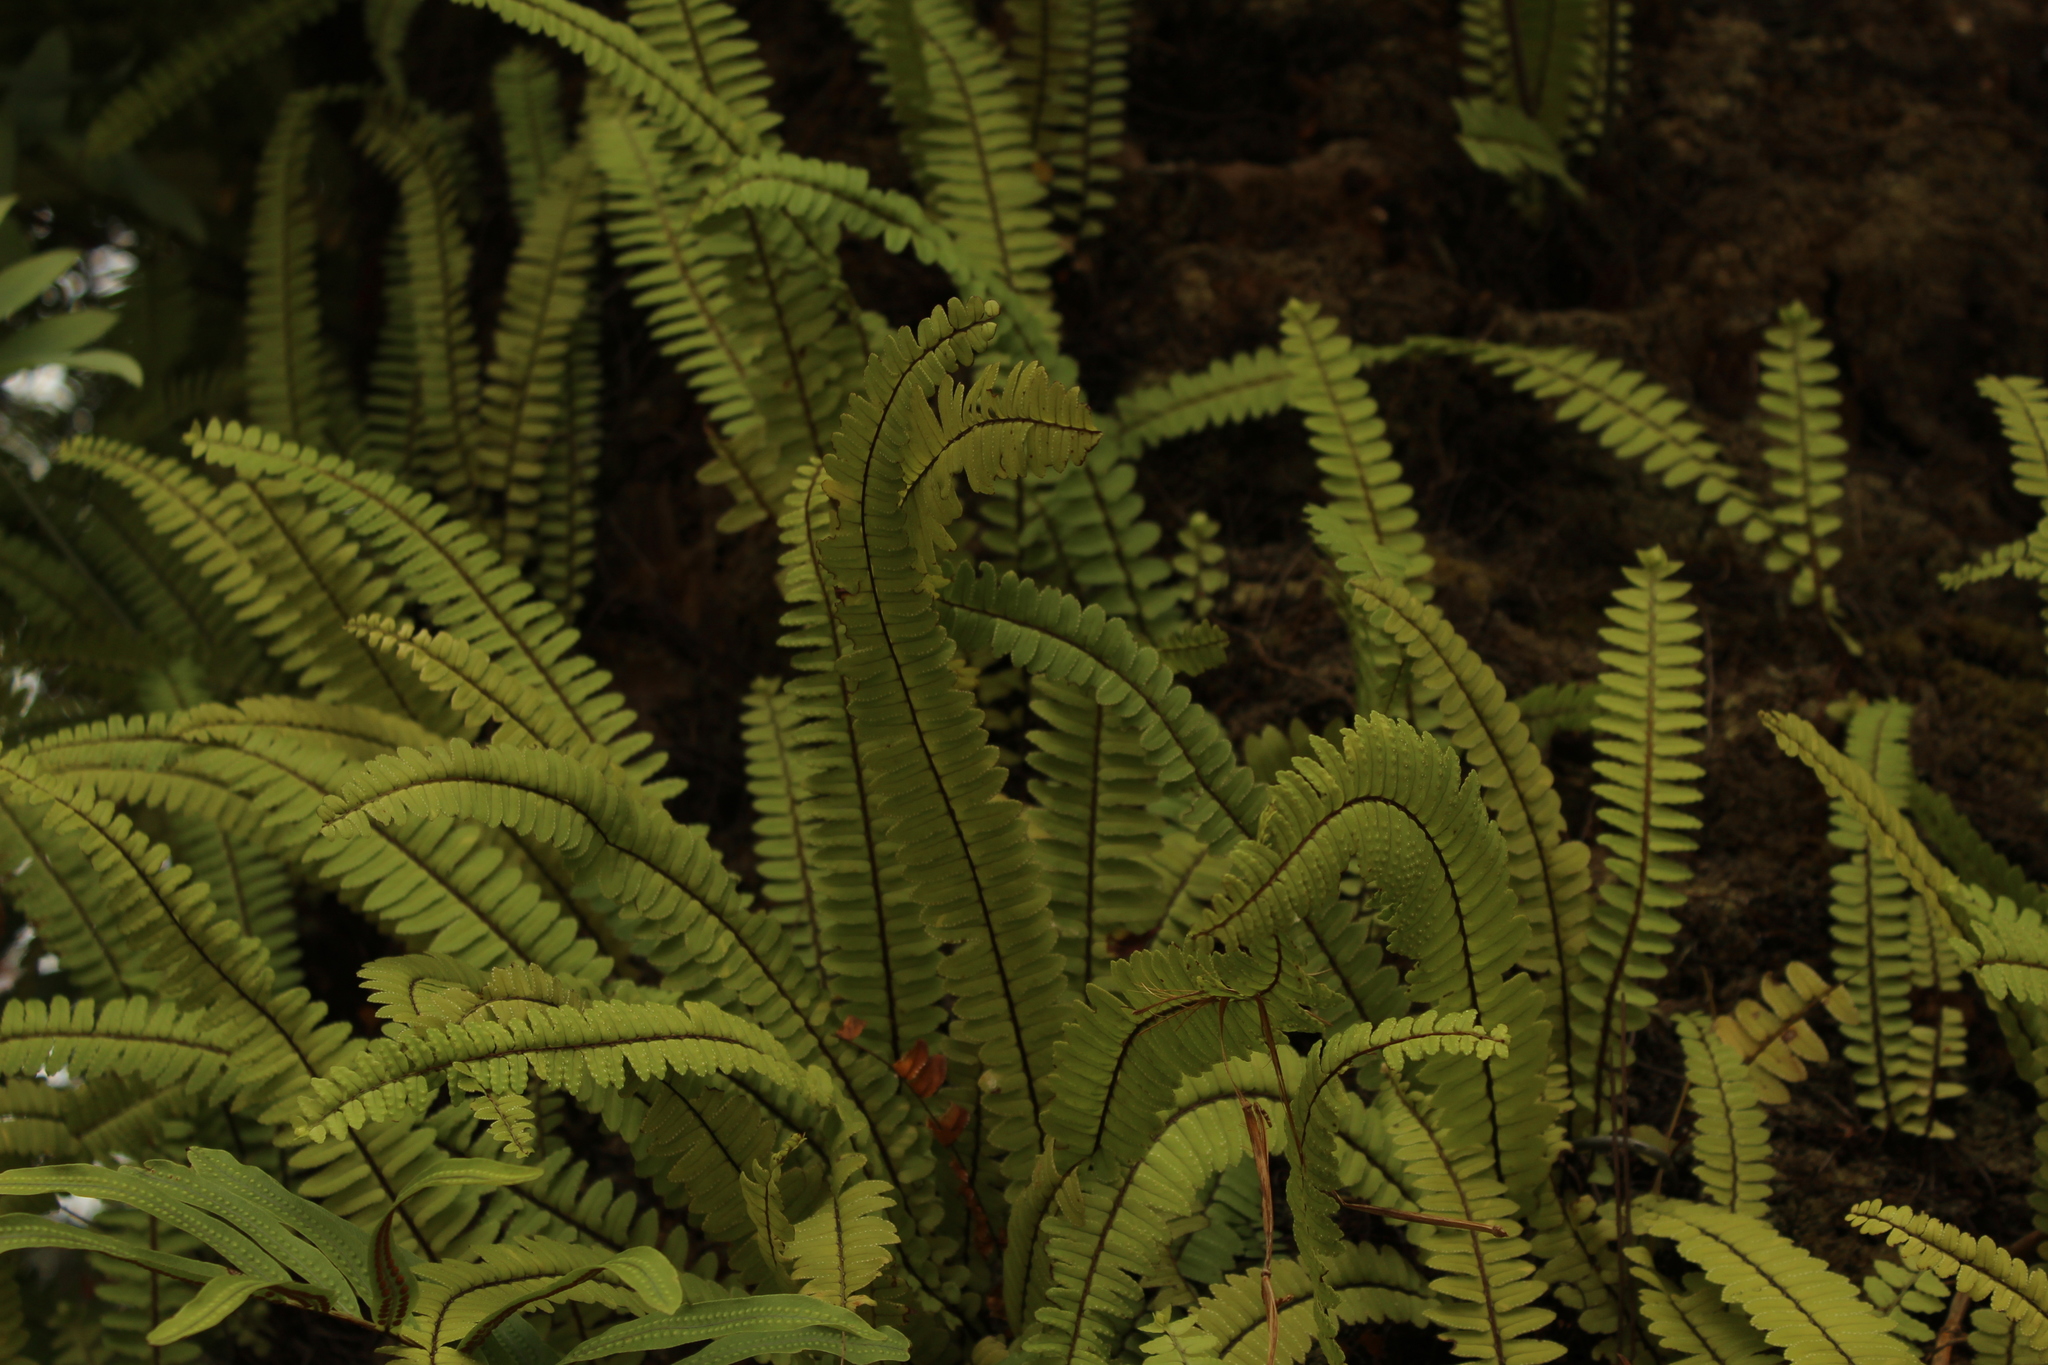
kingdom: Plantae
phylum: Tracheophyta
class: Polypodiopsida
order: Polypodiales
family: Nephrolepidaceae
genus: Nephrolepis
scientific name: Nephrolepis cordifolia
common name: Narrow swordfern
